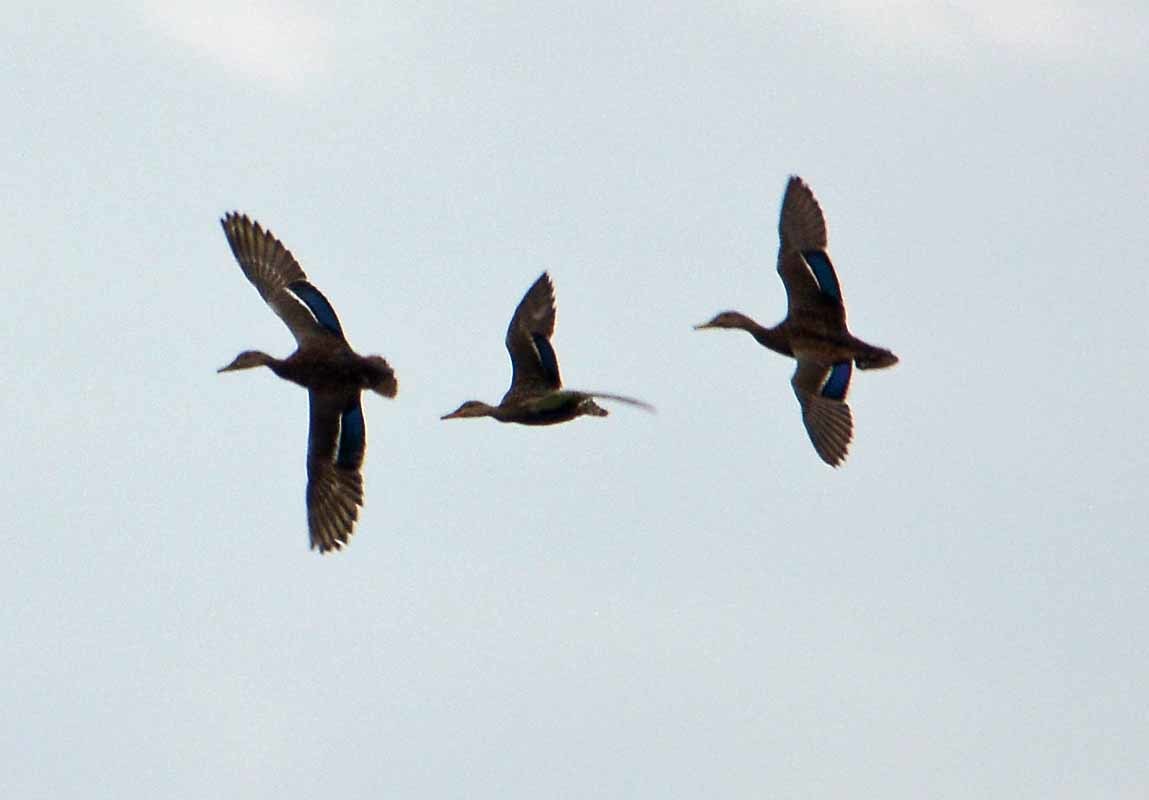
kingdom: Animalia
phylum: Chordata
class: Aves
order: Anseriformes
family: Anatidae
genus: Anas
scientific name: Anas diazi
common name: Mexican duck
